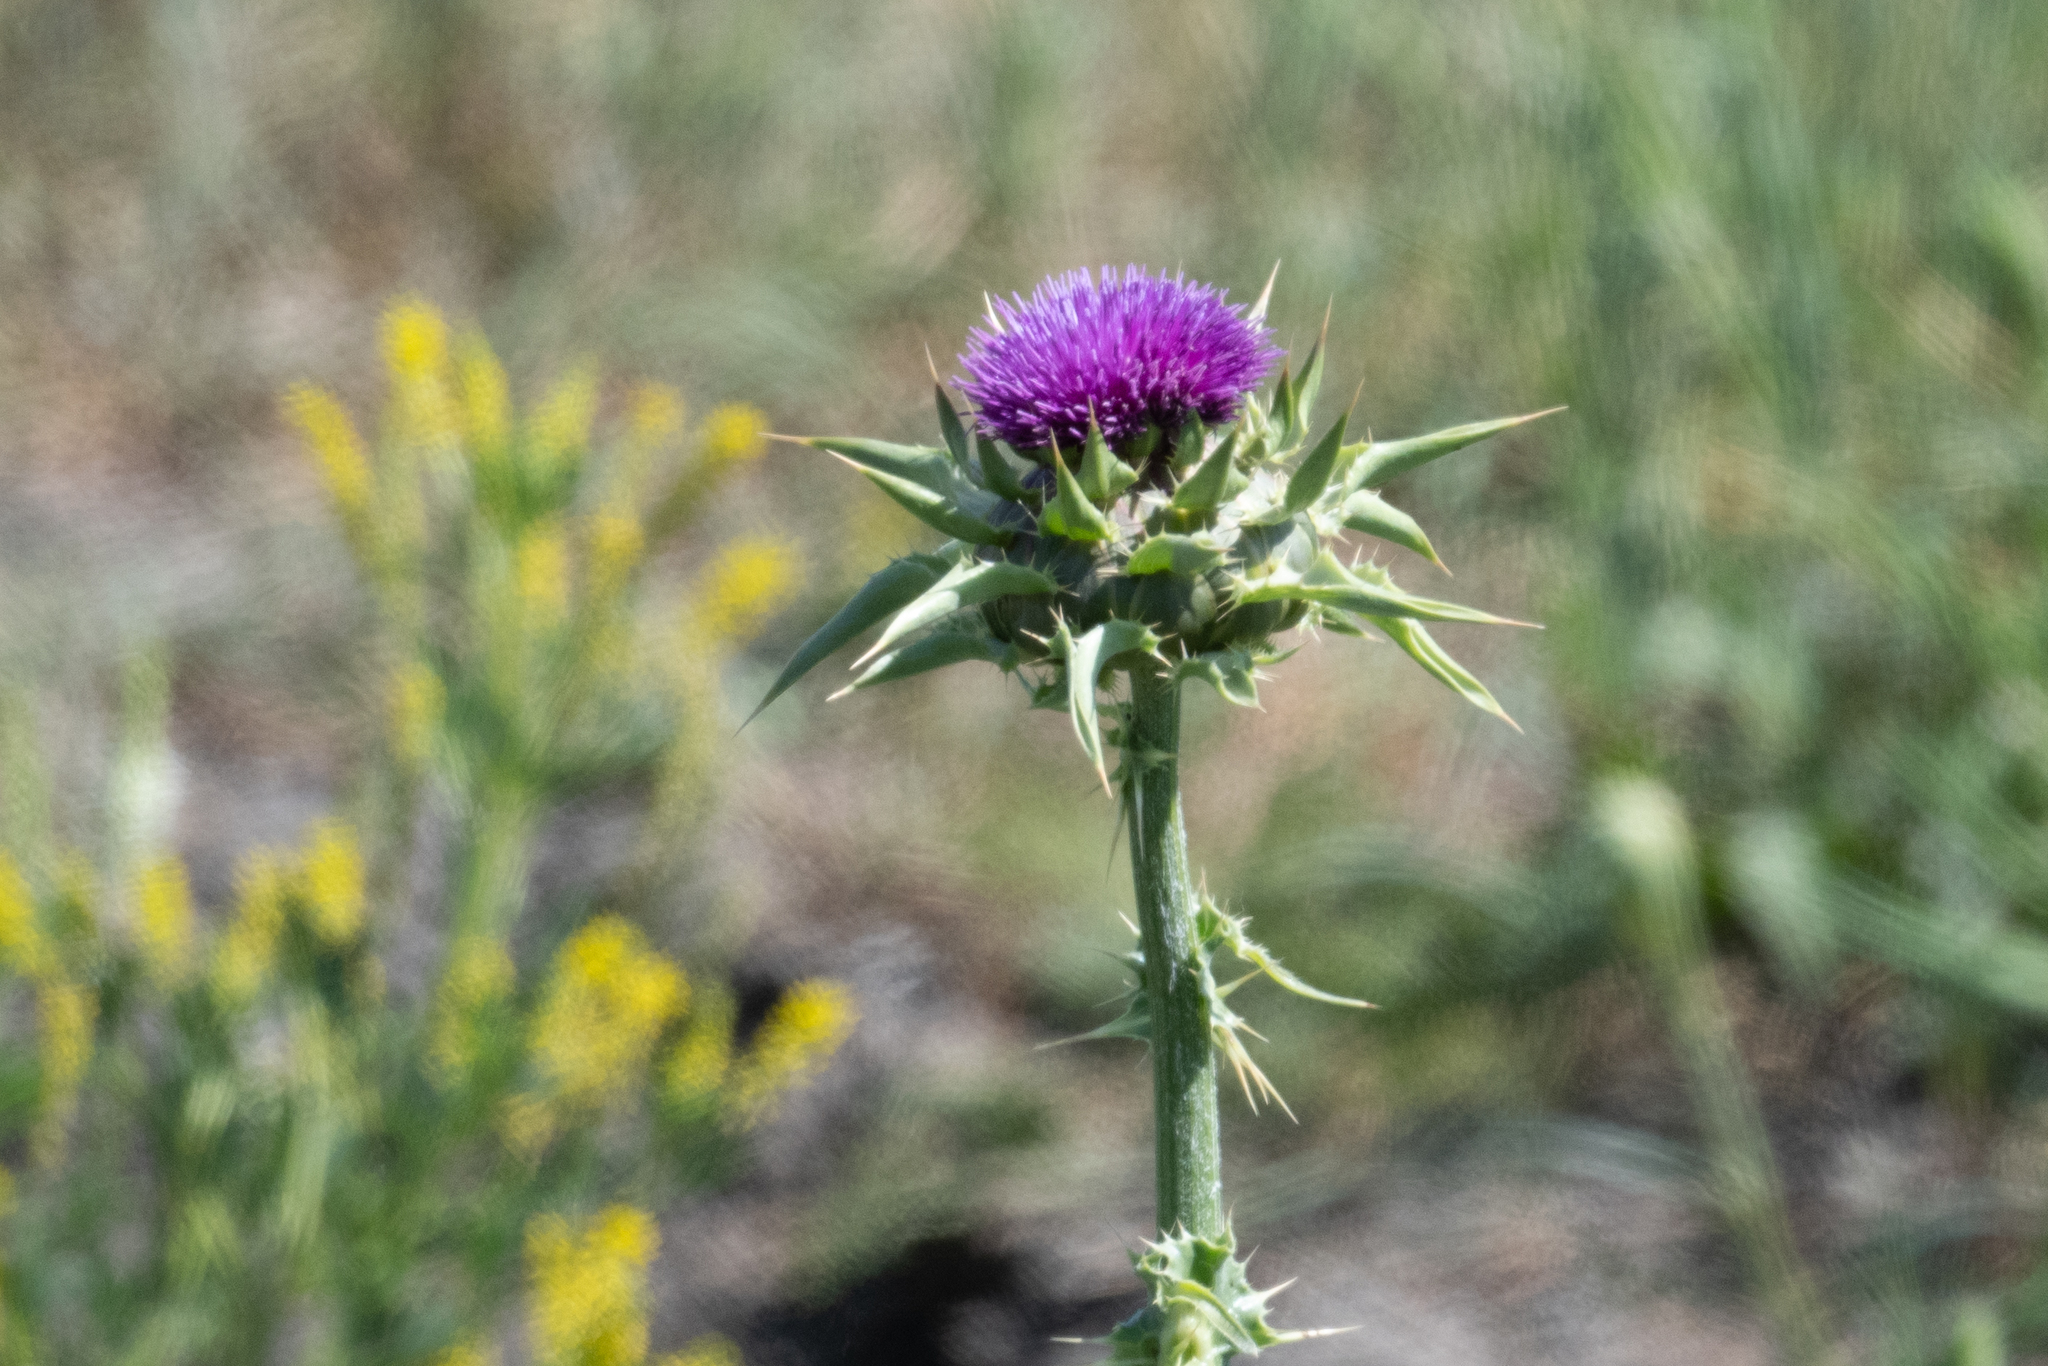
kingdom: Plantae
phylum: Tracheophyta
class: Magnoliopsida
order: Asterales
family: Asteraceae
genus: Silybum
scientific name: Silybum marianum
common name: Milk thistle
